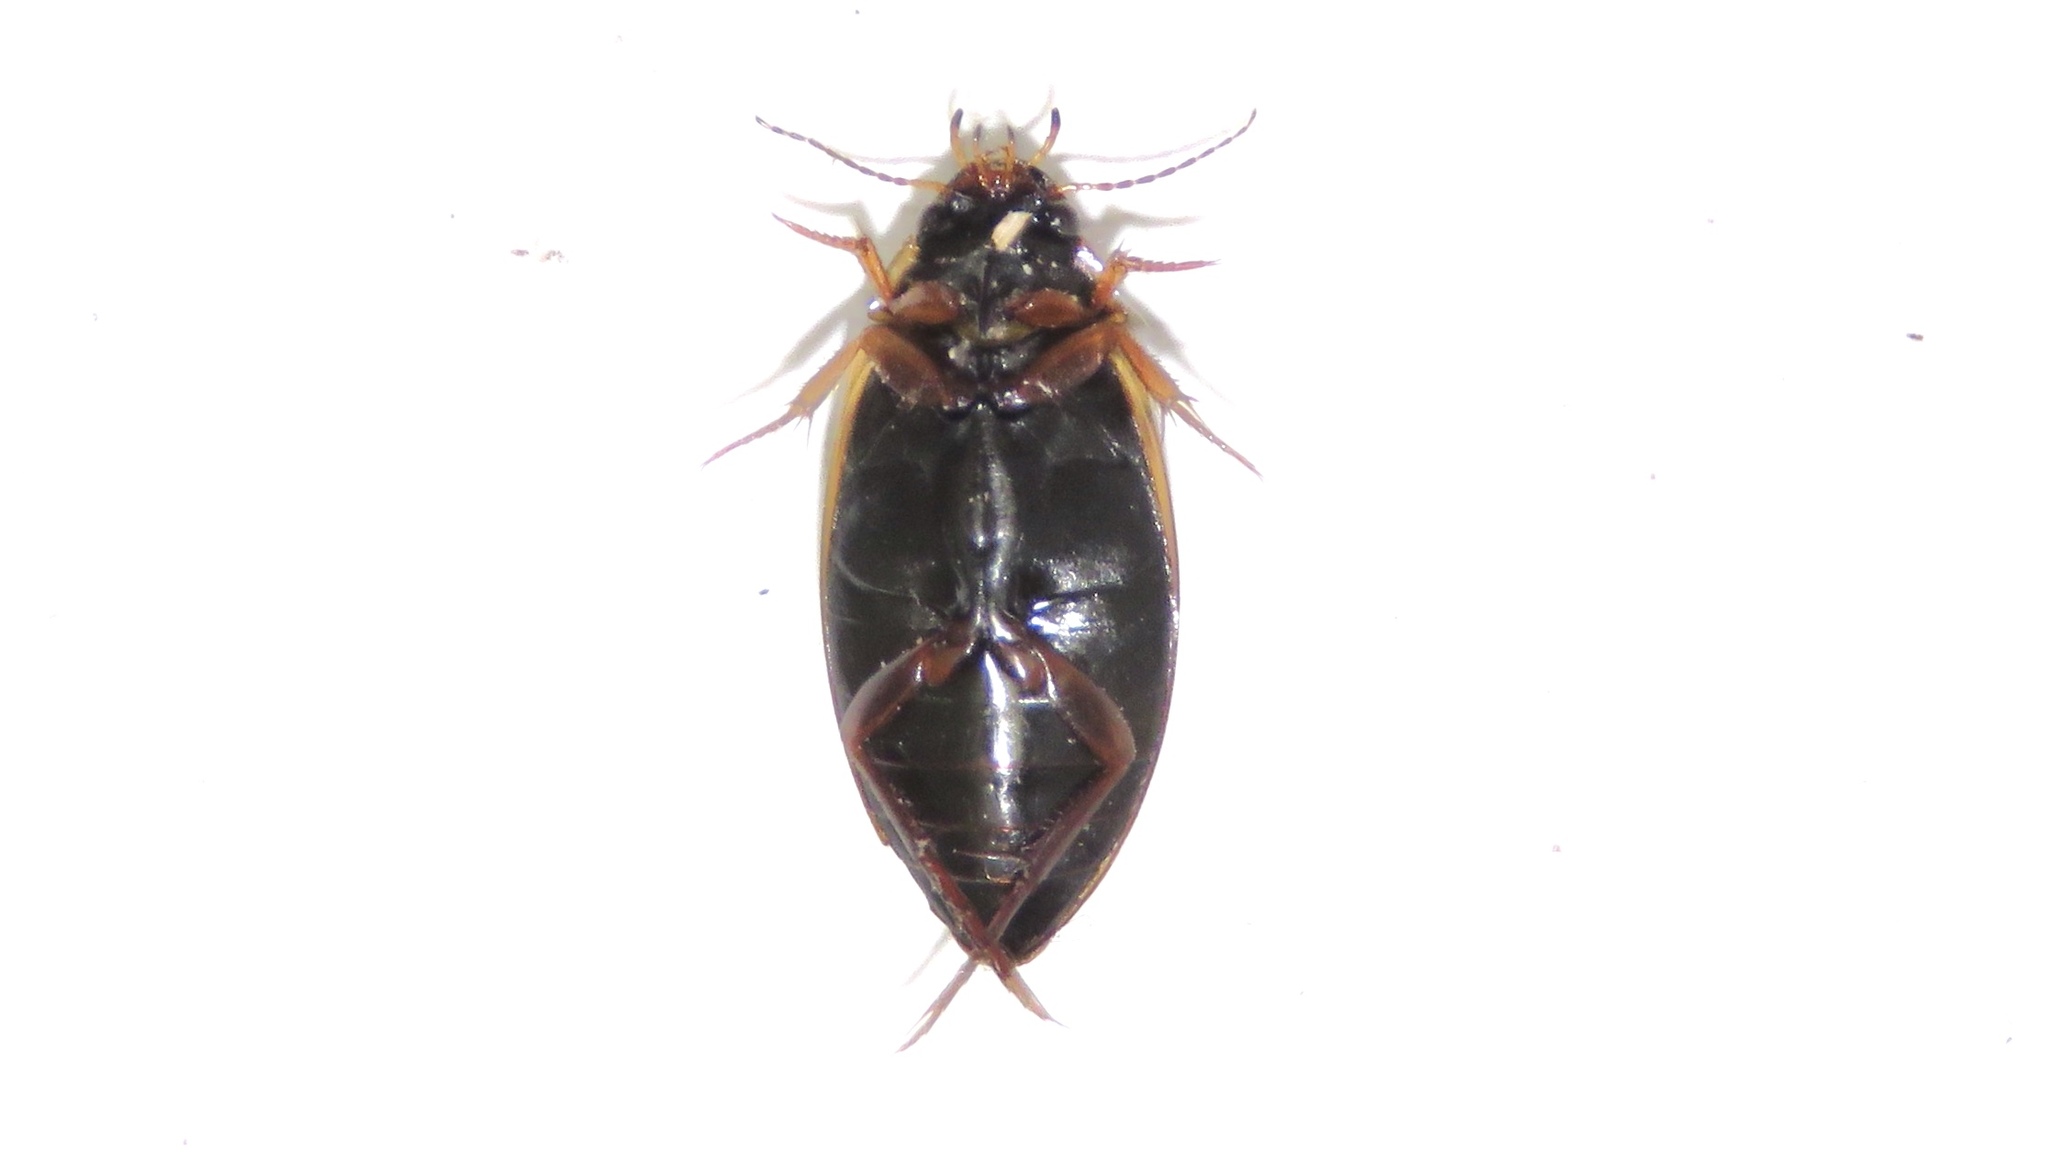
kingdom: Animalia
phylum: Arthropoda
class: Insecta
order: Coleoptera
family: Dytiscidae
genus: Colymbetes
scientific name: Colymbetes sculptilis
